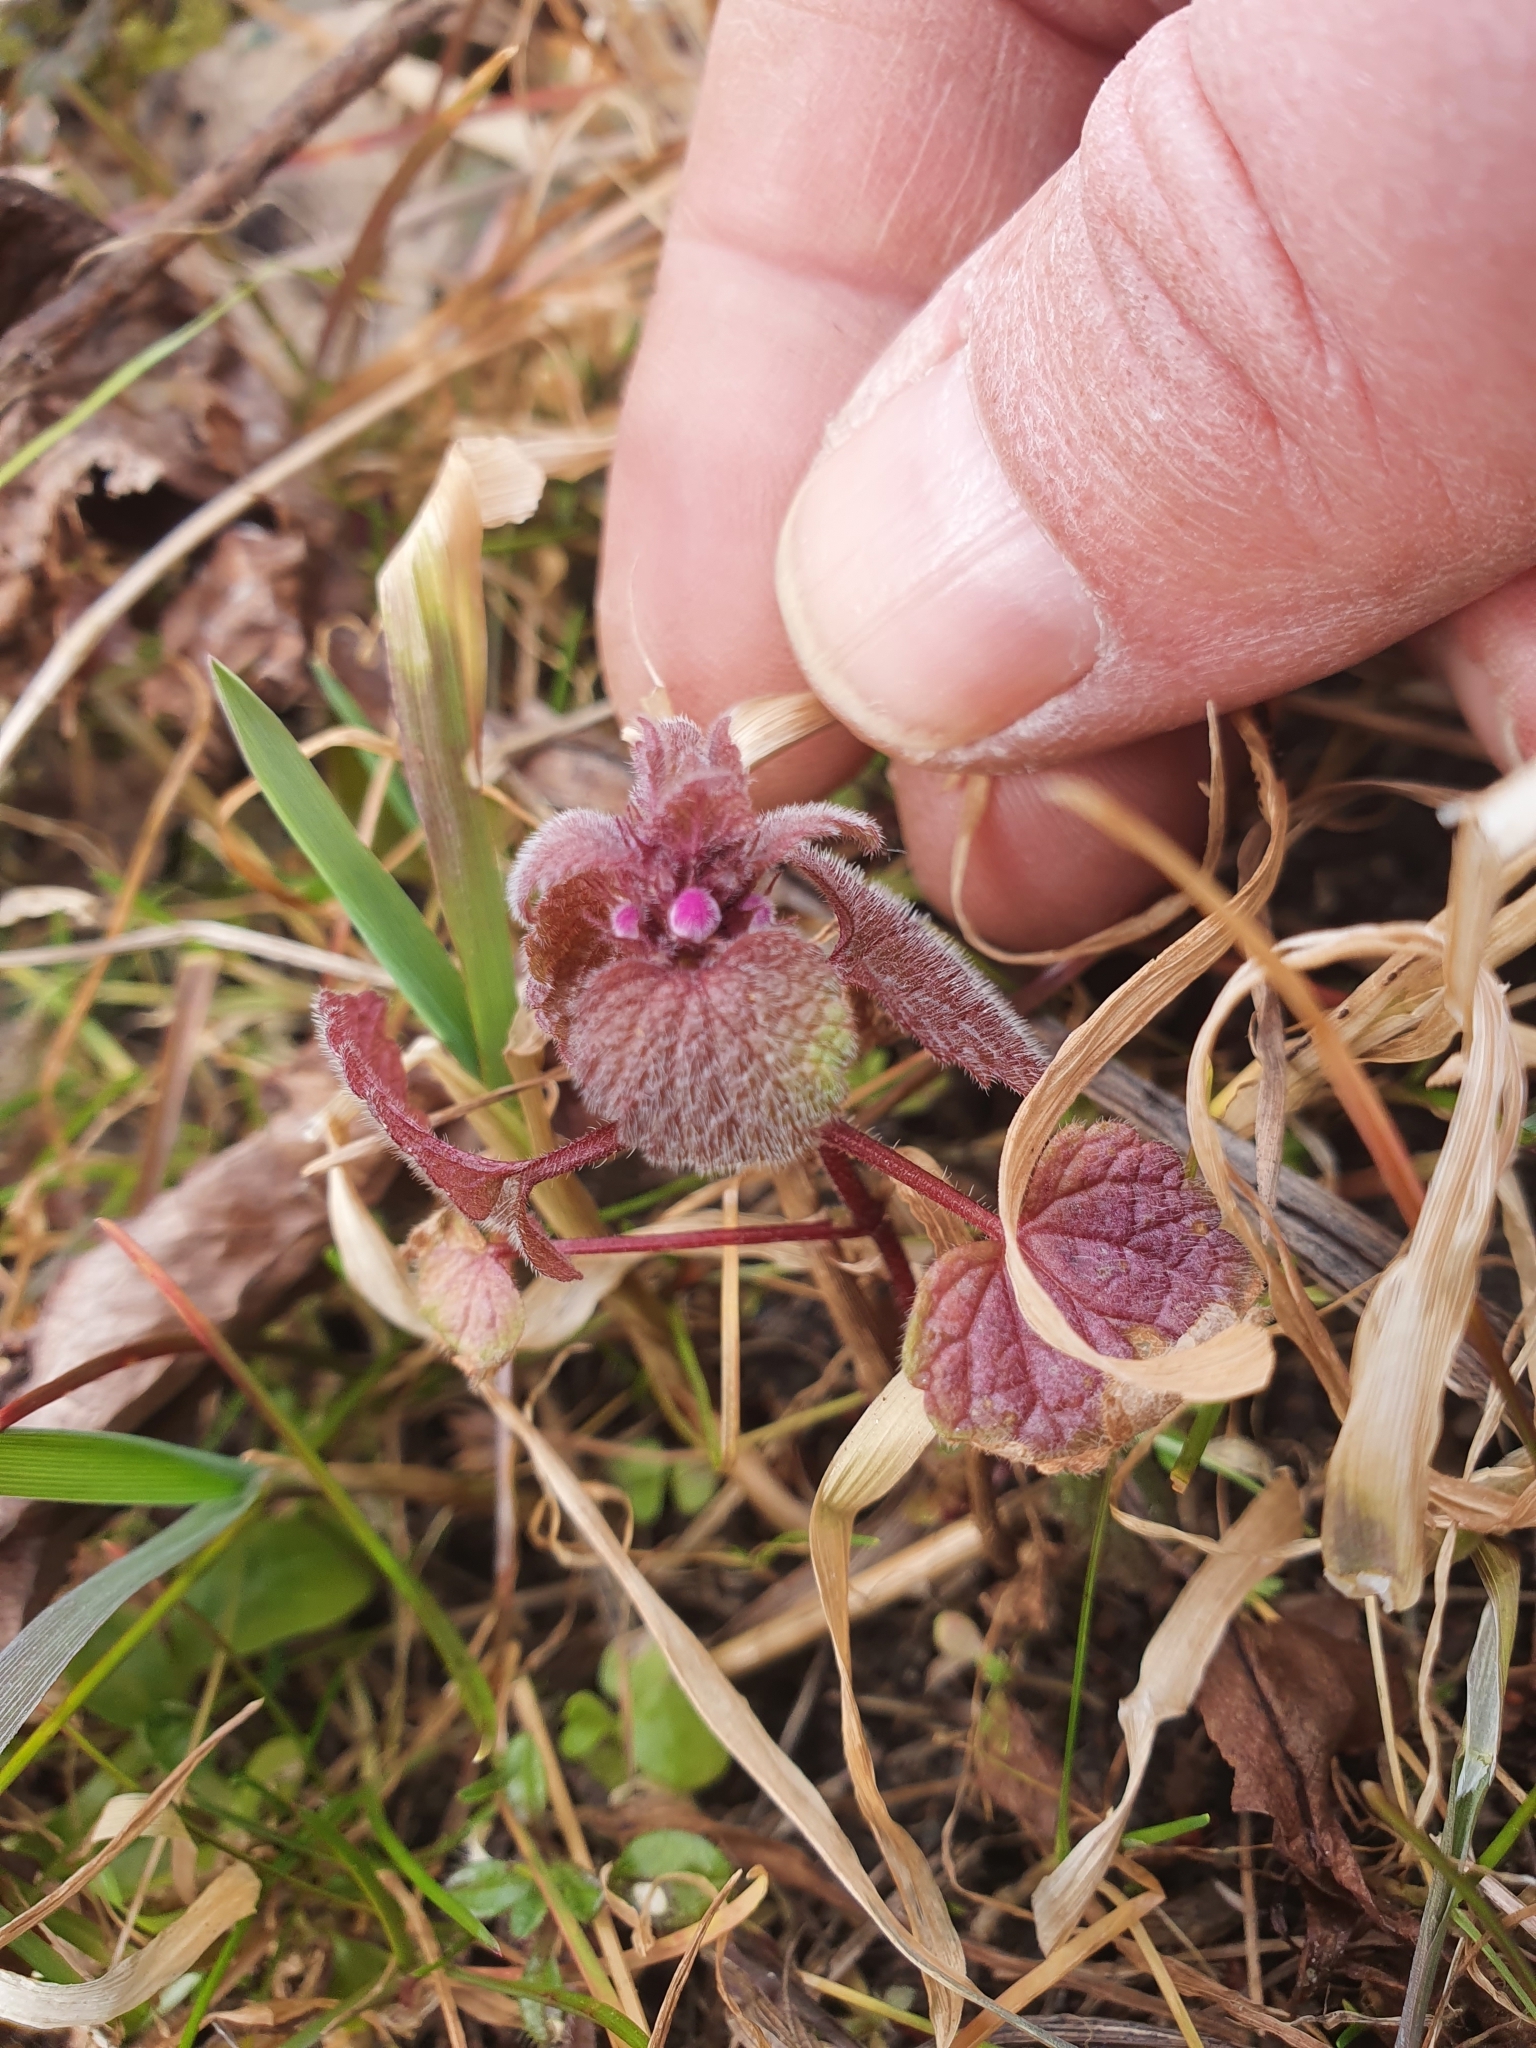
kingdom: Plantae
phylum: Tracheophyta
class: Magnoliopsida
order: Lamiales
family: Lamiaceae
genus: Lamium
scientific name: Lamium purpureum
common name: Red dead-nettle
